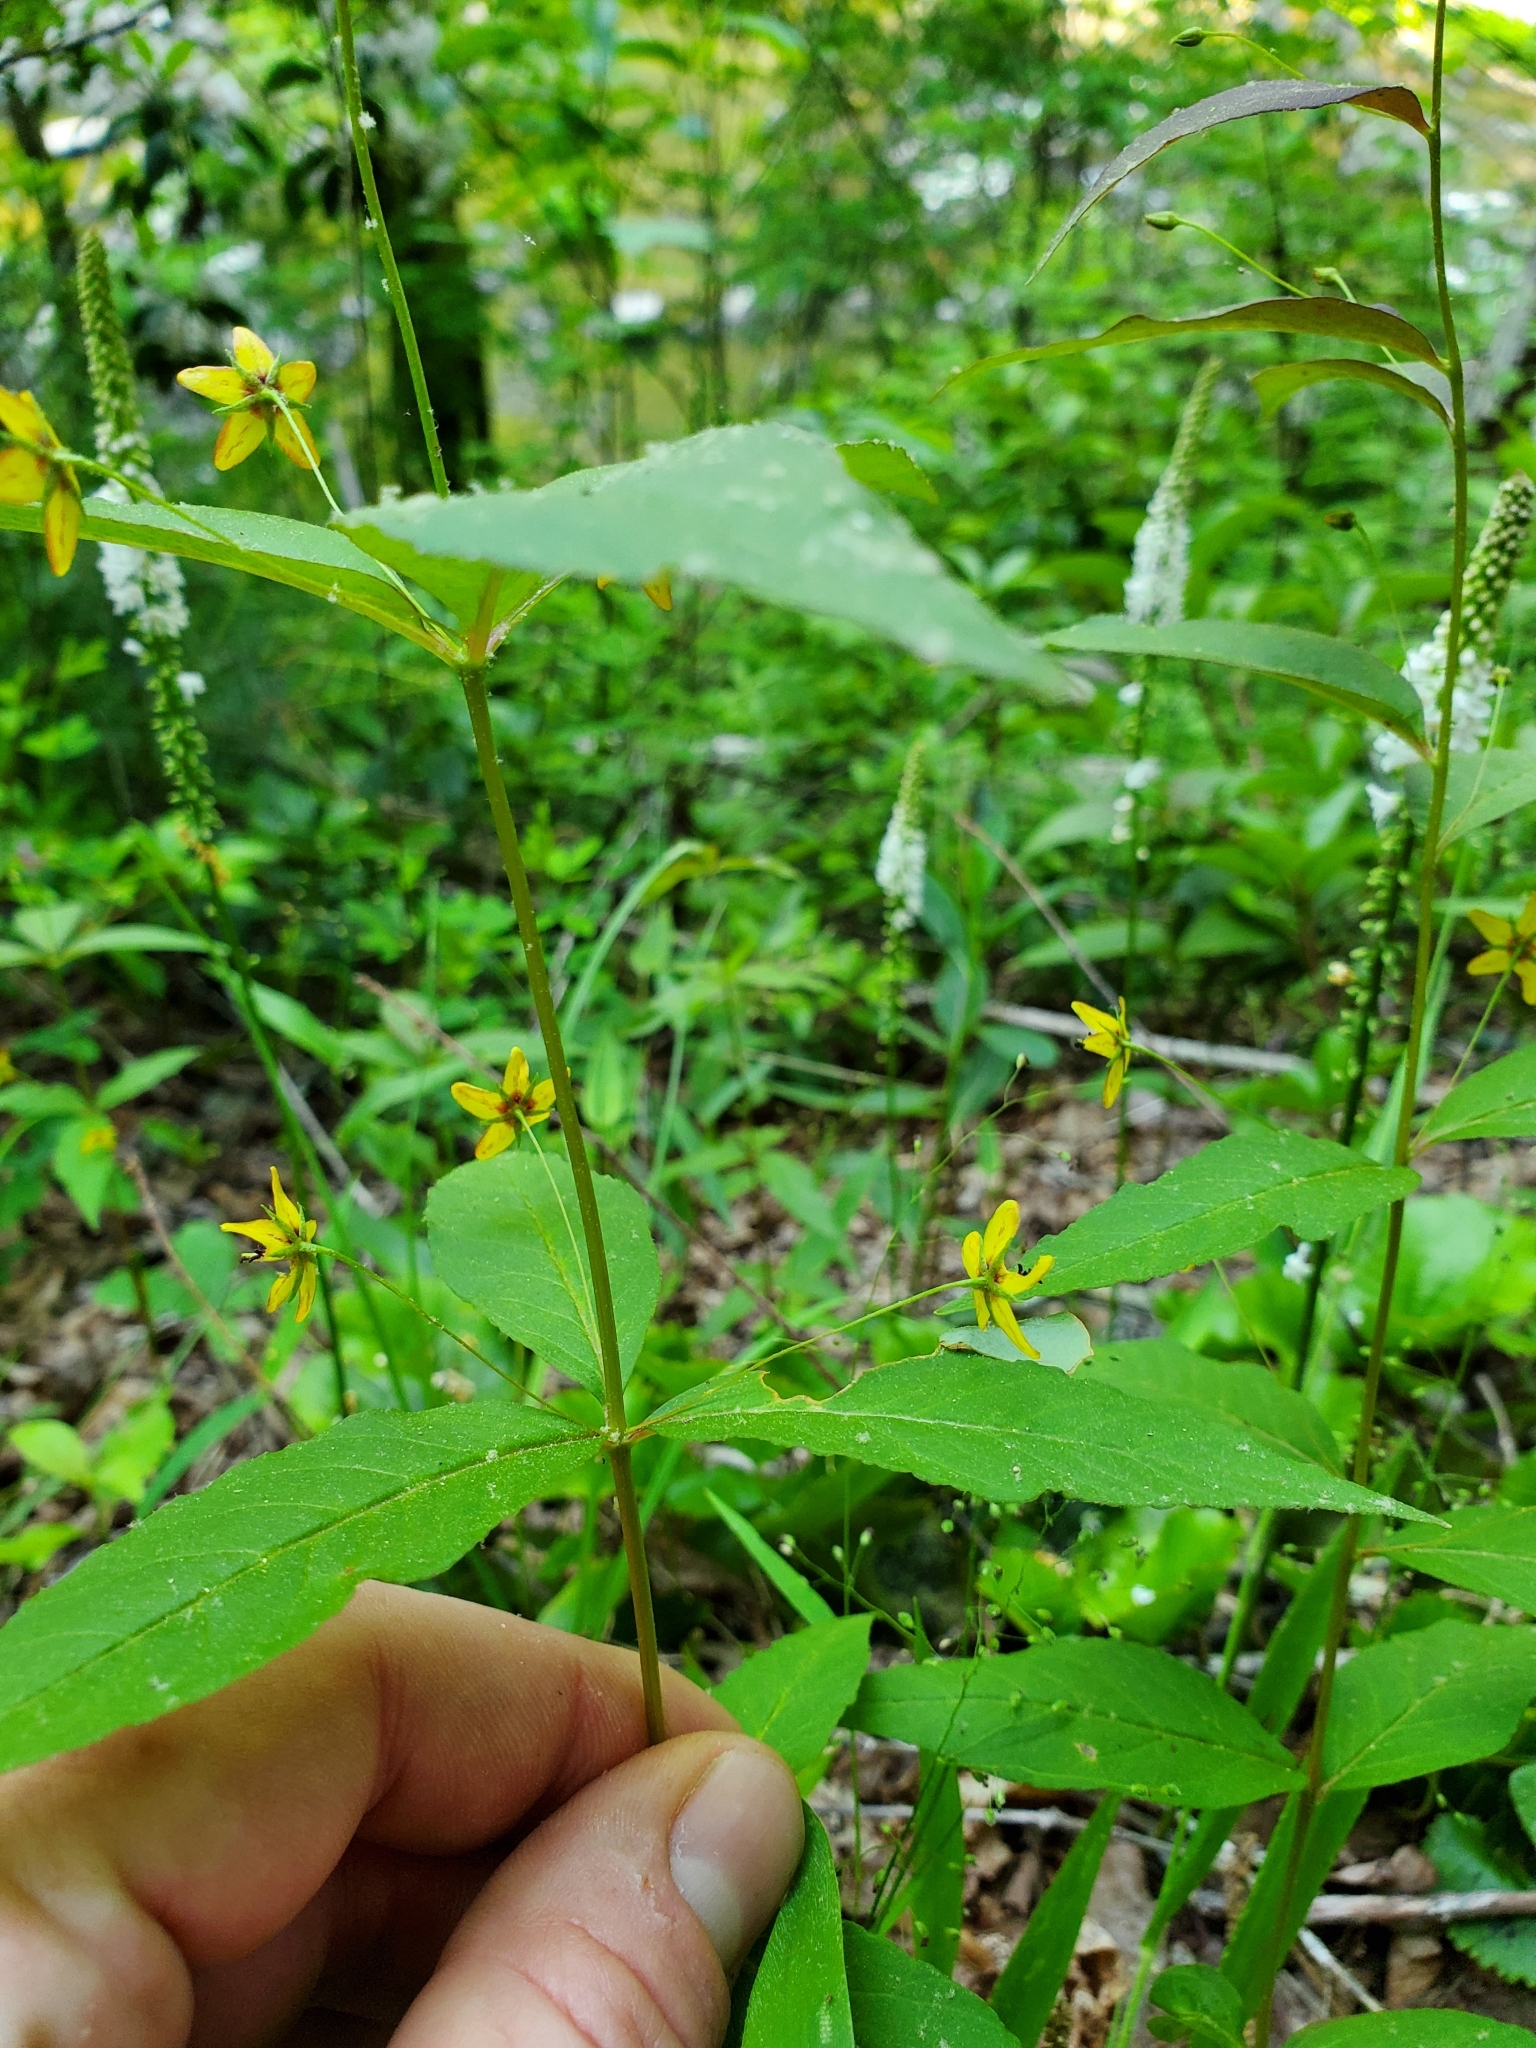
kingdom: Plantae
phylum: Tracheophyta
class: Magnoliopsida
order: Ericales
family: Primulaceae
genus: Lysimachia
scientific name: Lysimachia quadrifolia
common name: Whorled loosestrife
